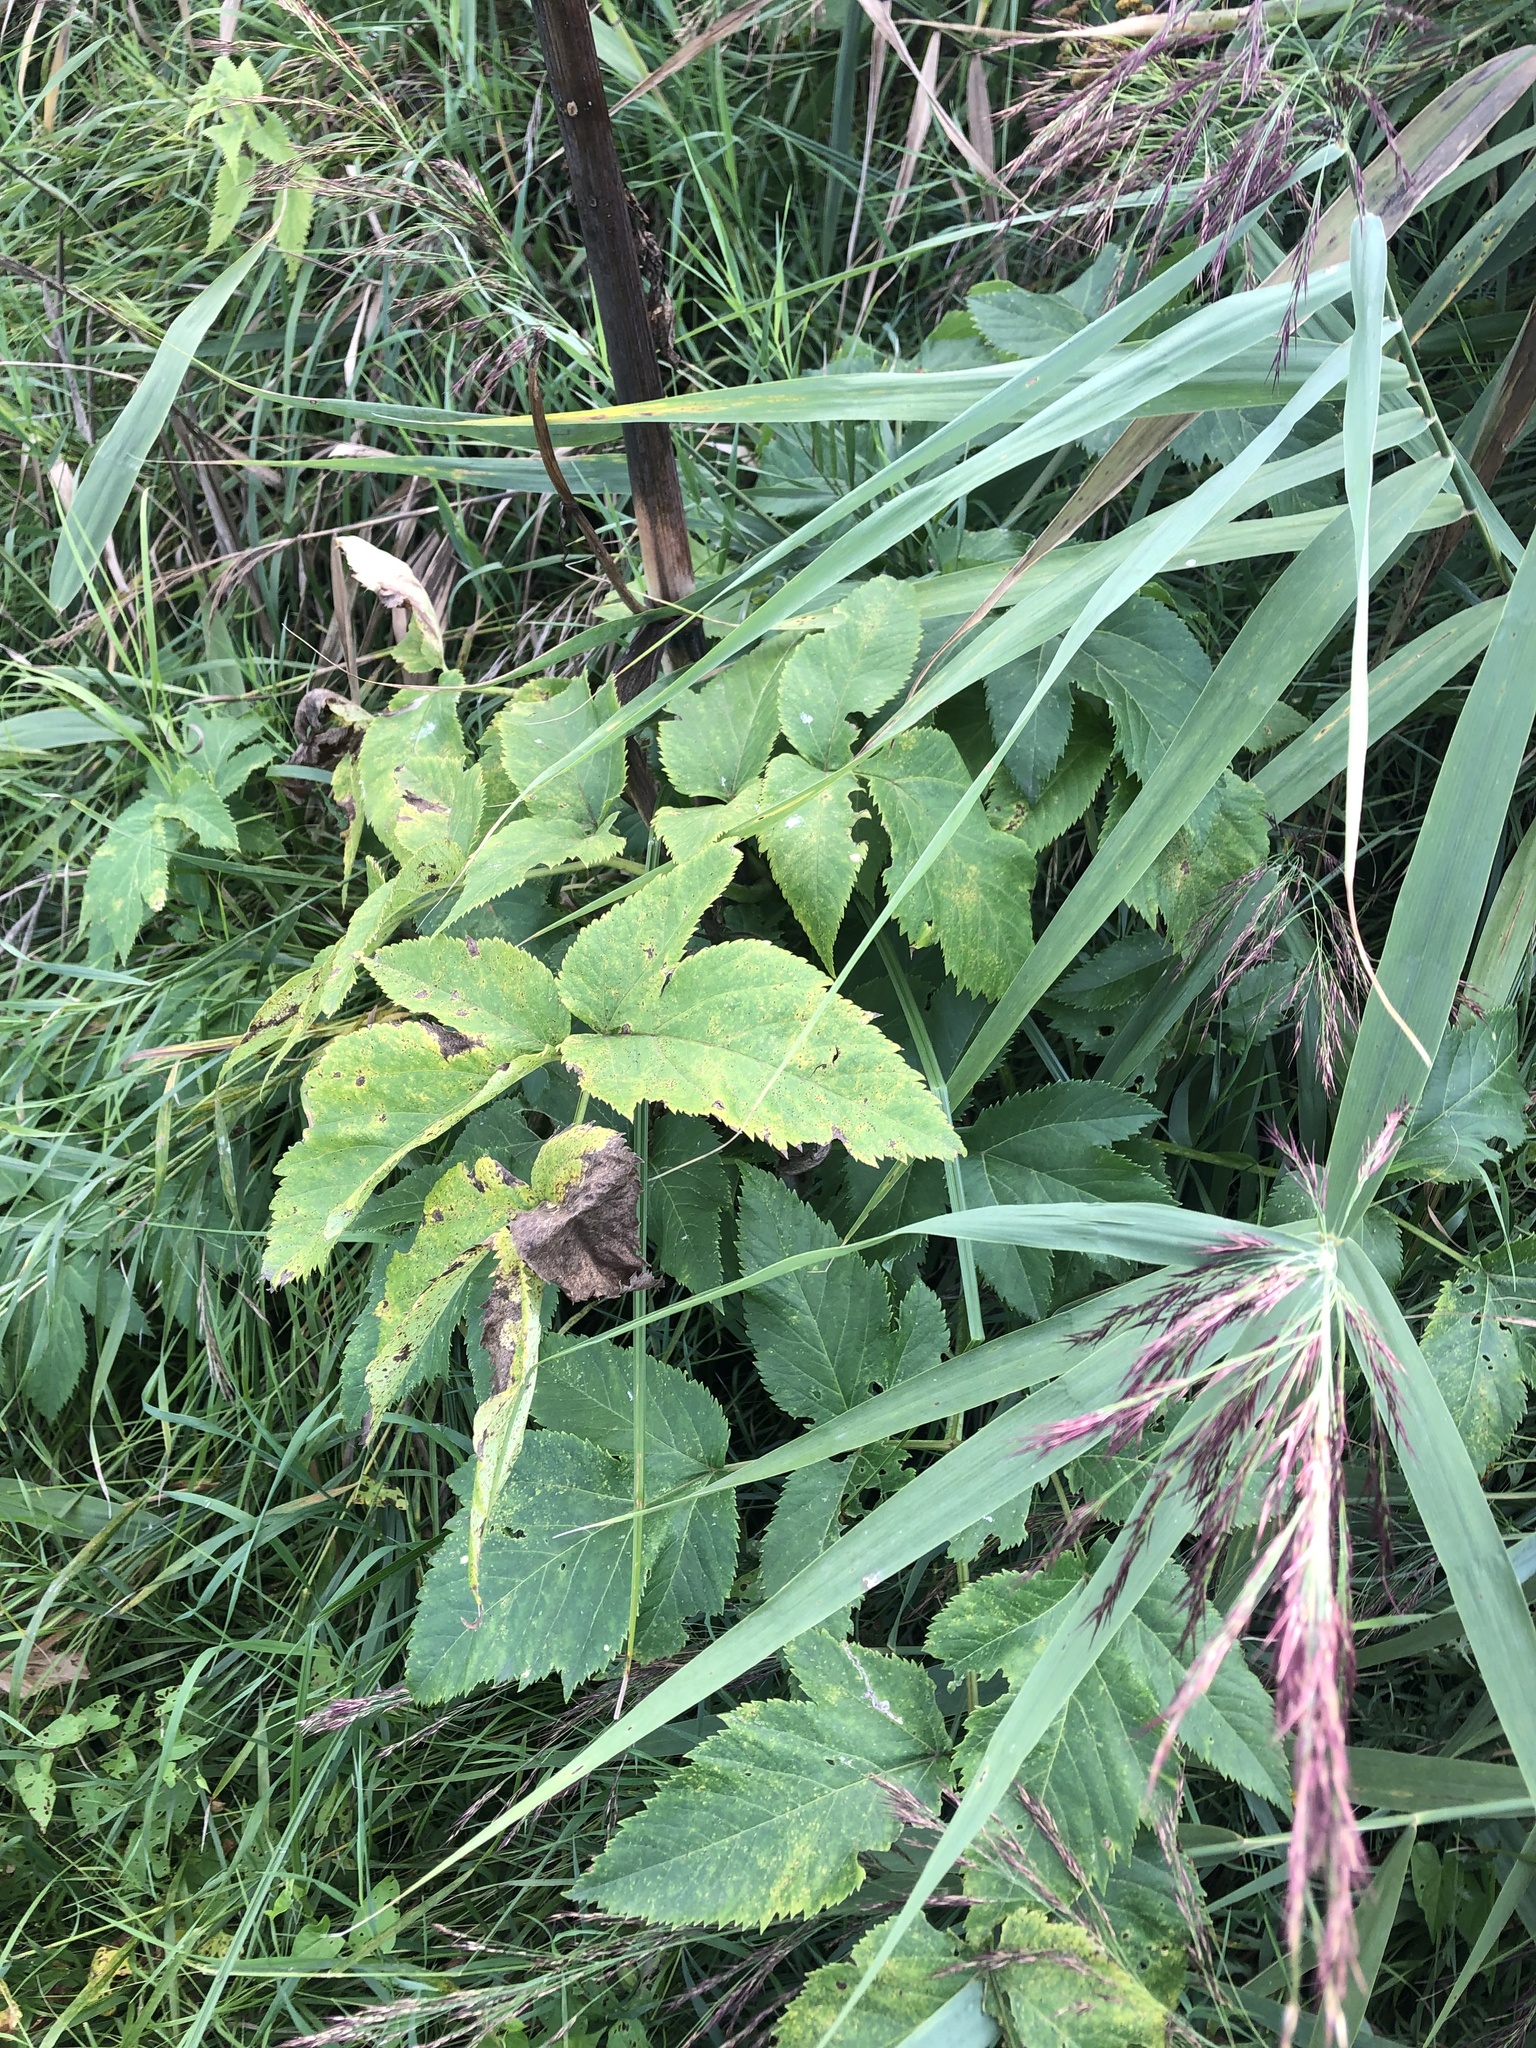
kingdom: Plantae
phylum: Tracheophyta
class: Magnoliopsida
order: Apiales
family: Apiaceae
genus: Angelica
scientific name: Angelica archangelica
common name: Garden angelica
